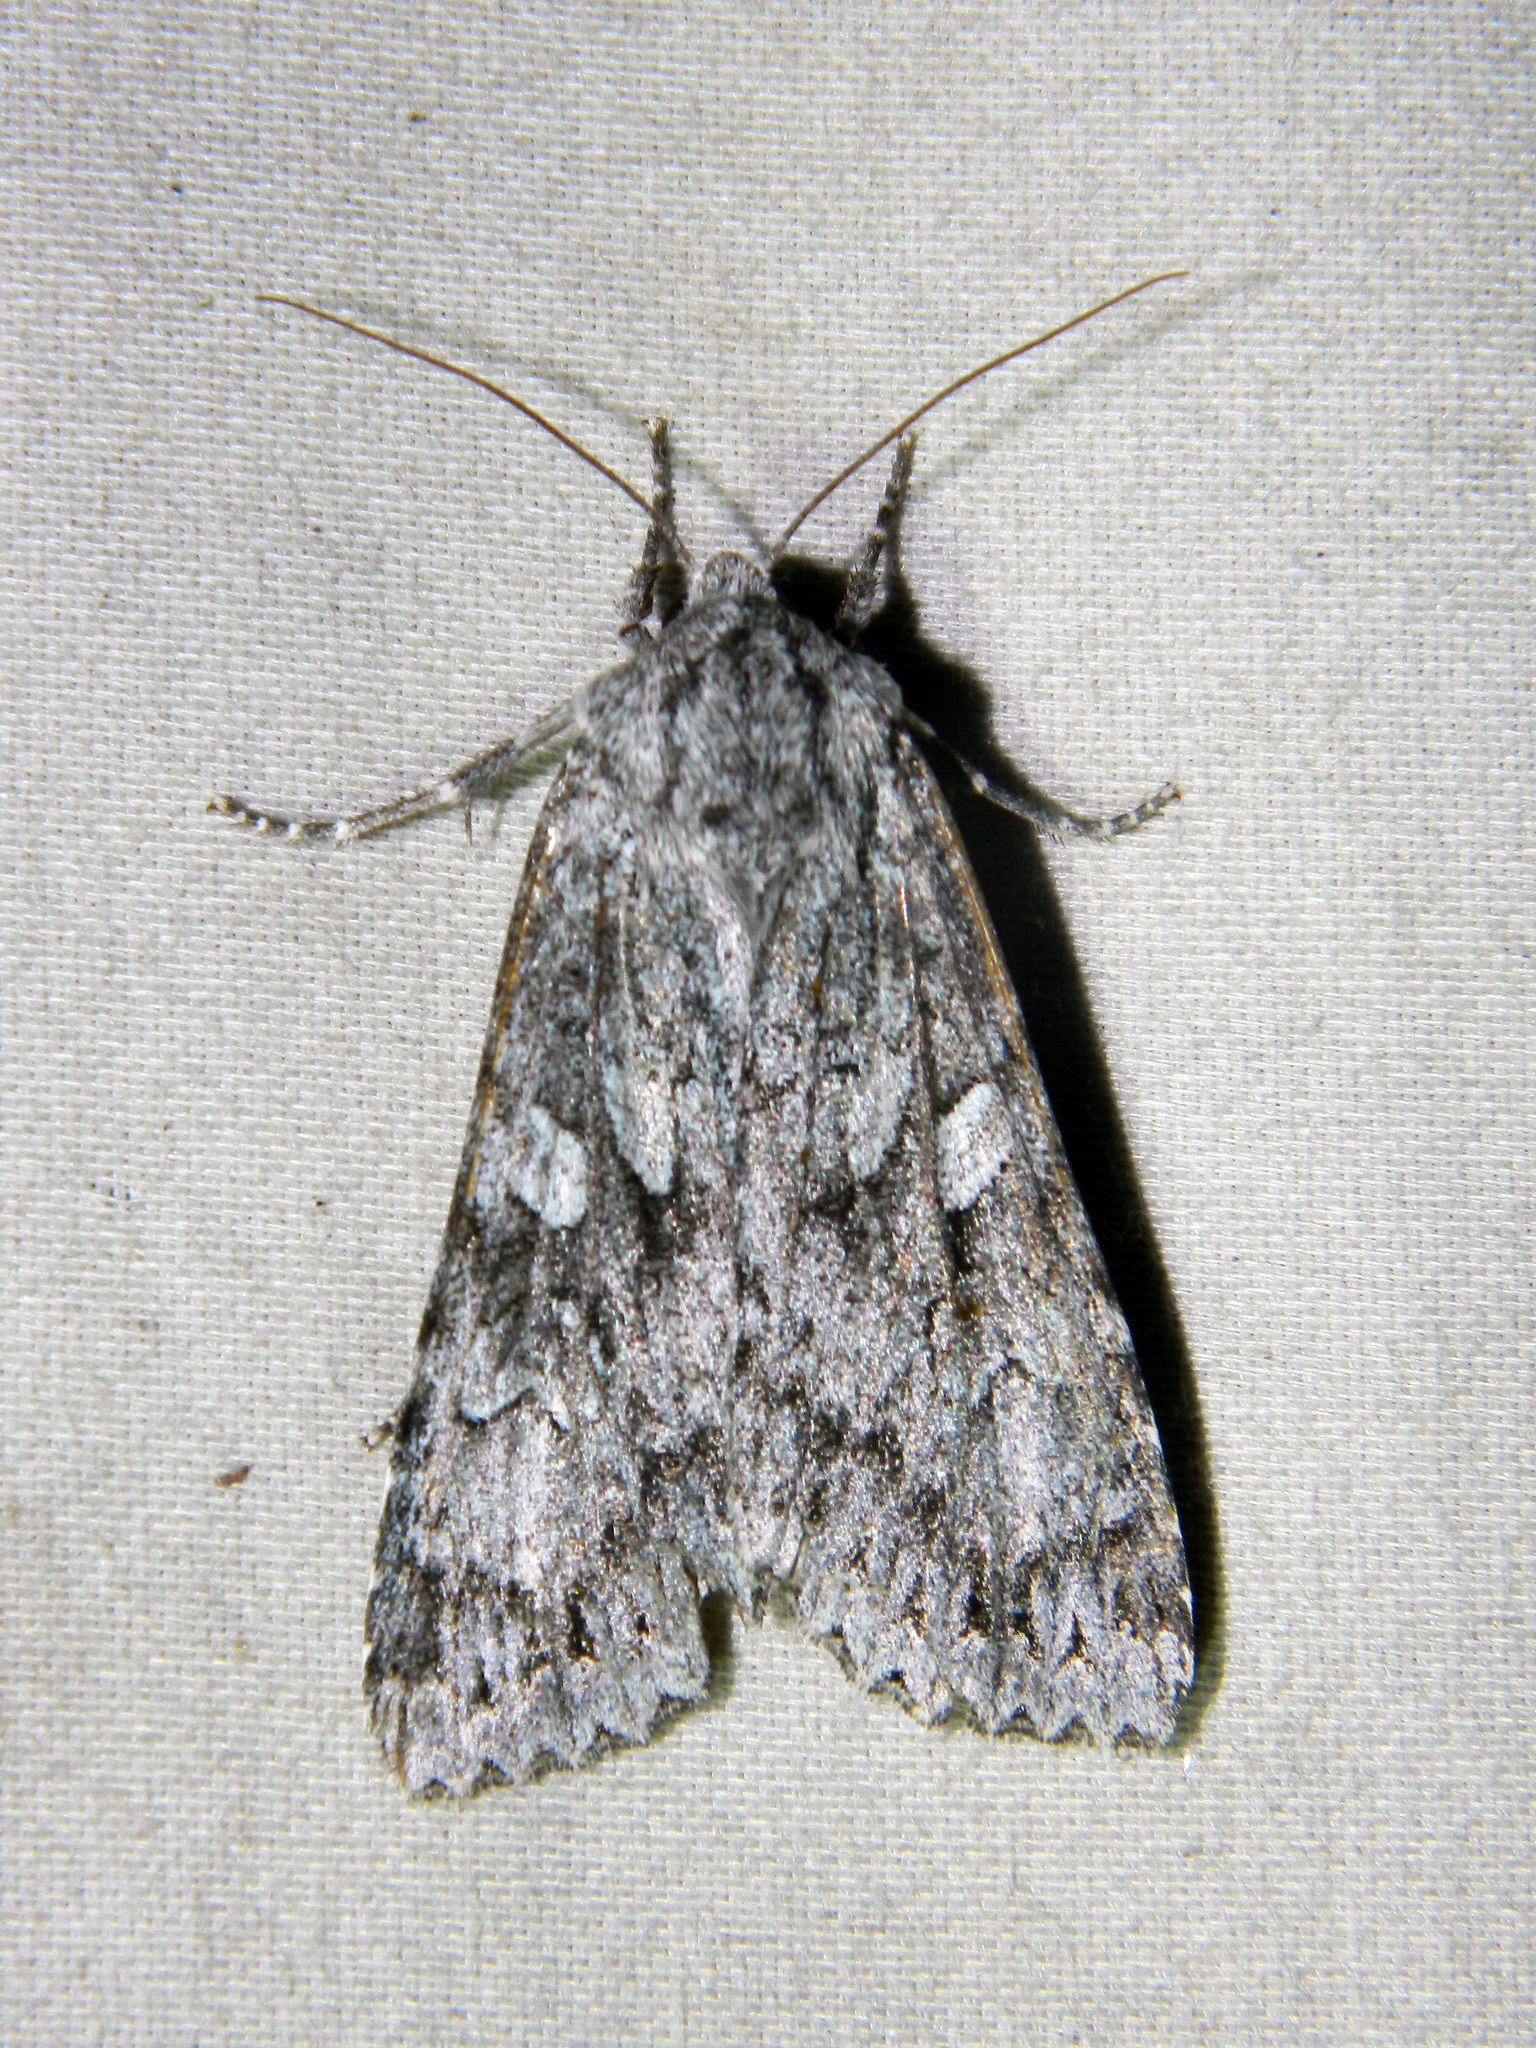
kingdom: Animalia
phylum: Arthropoda
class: Insecta
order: Lepidoptera
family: Noctuidae
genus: Eurois
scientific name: Eurois occulta
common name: Great brocade
